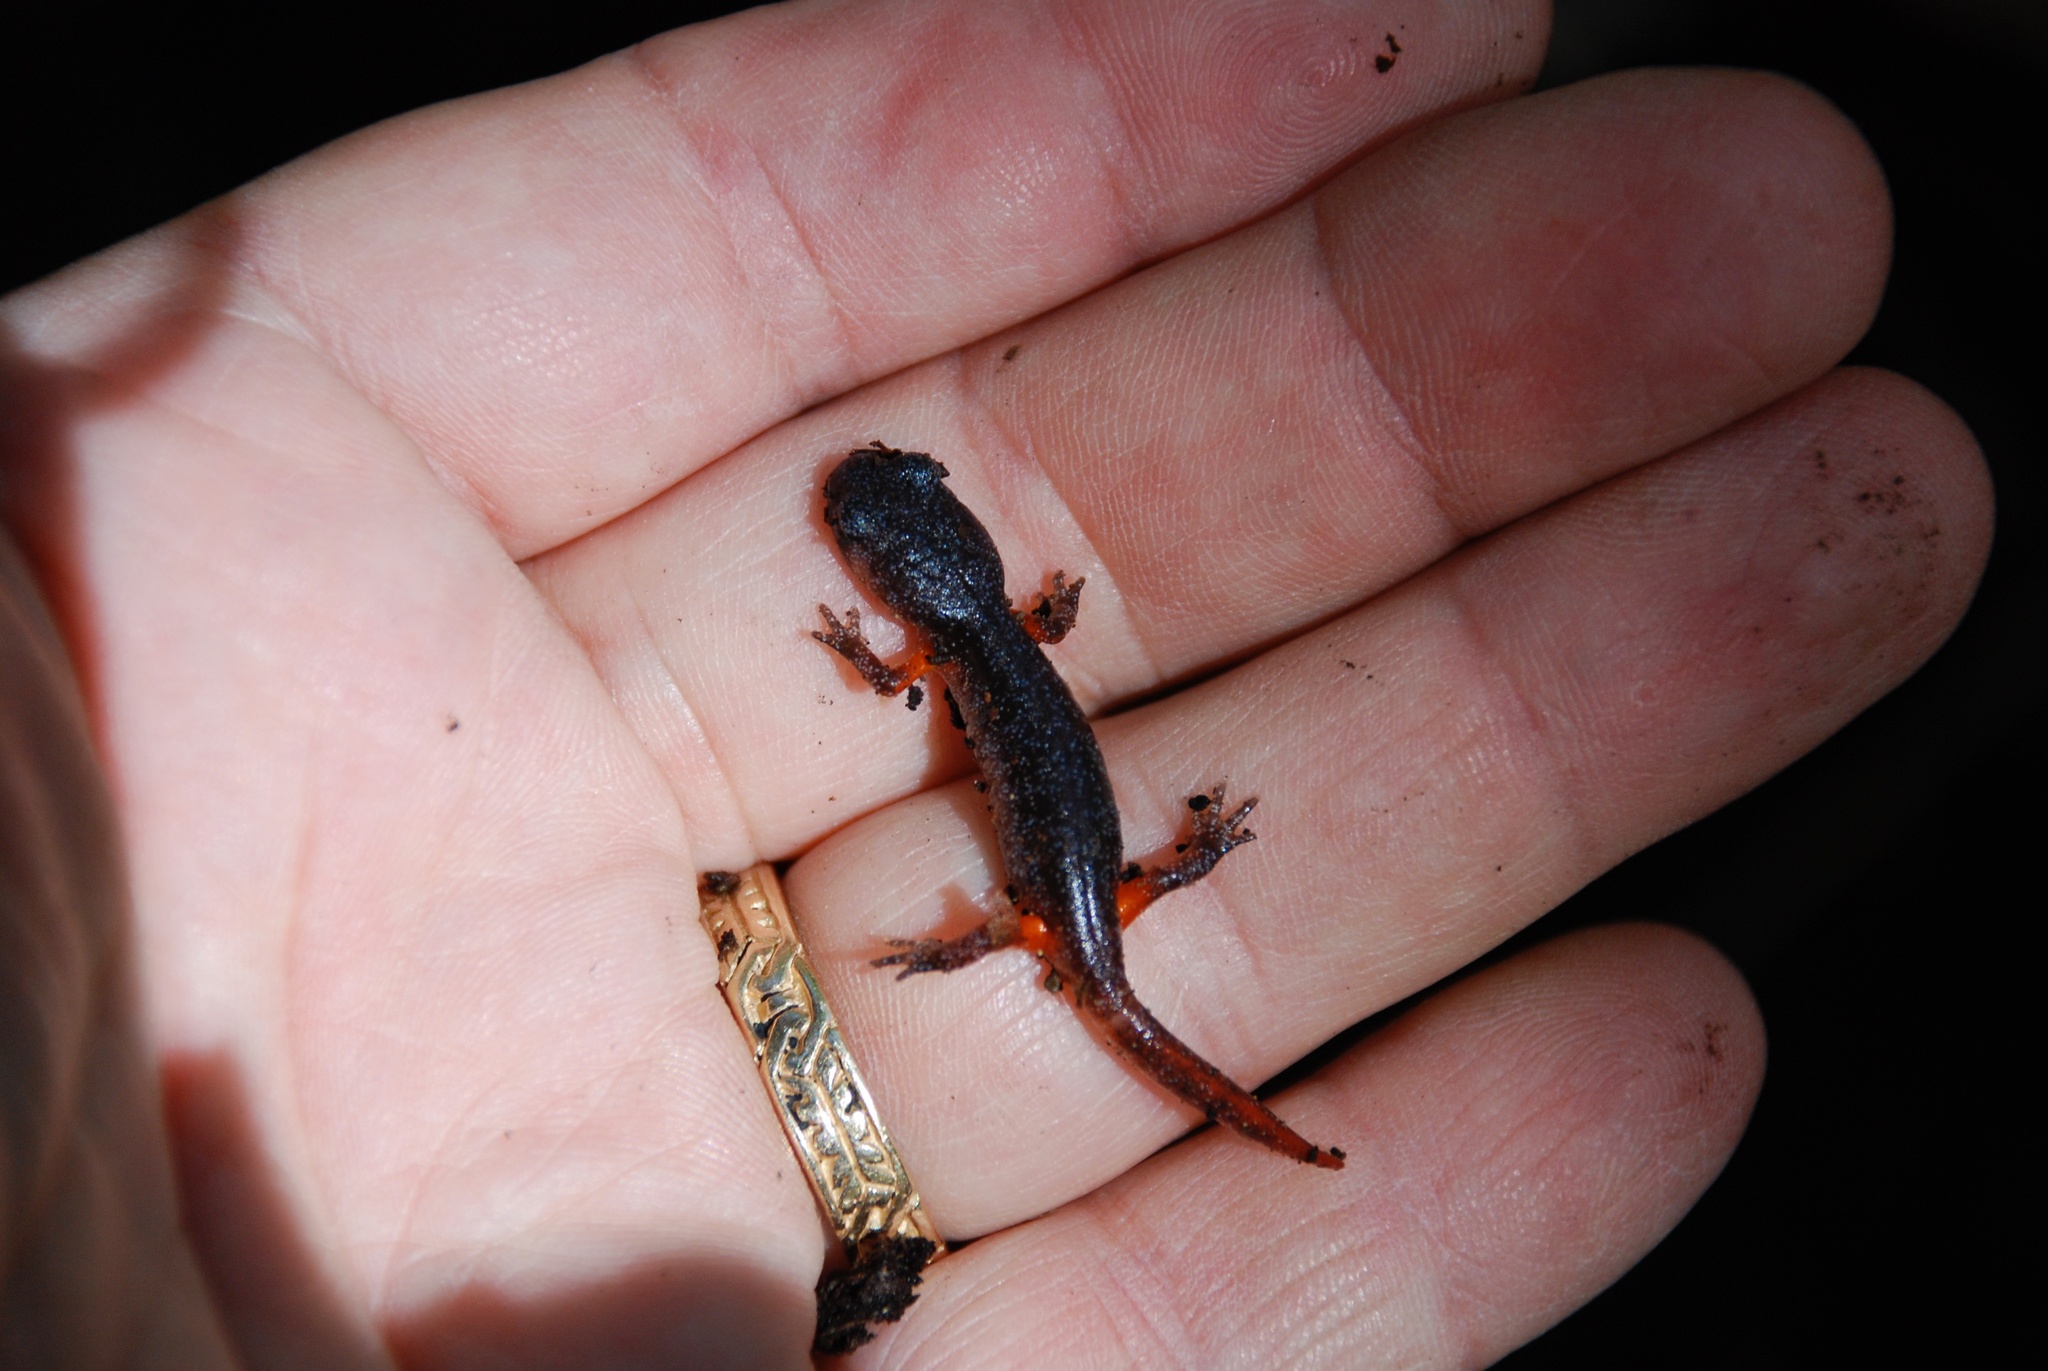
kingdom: Animalia
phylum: Chordata
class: Amphibia
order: Caudata
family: Plethodontidae
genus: Ensatina
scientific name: Ensatina eschscholtzii
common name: Ensatina
